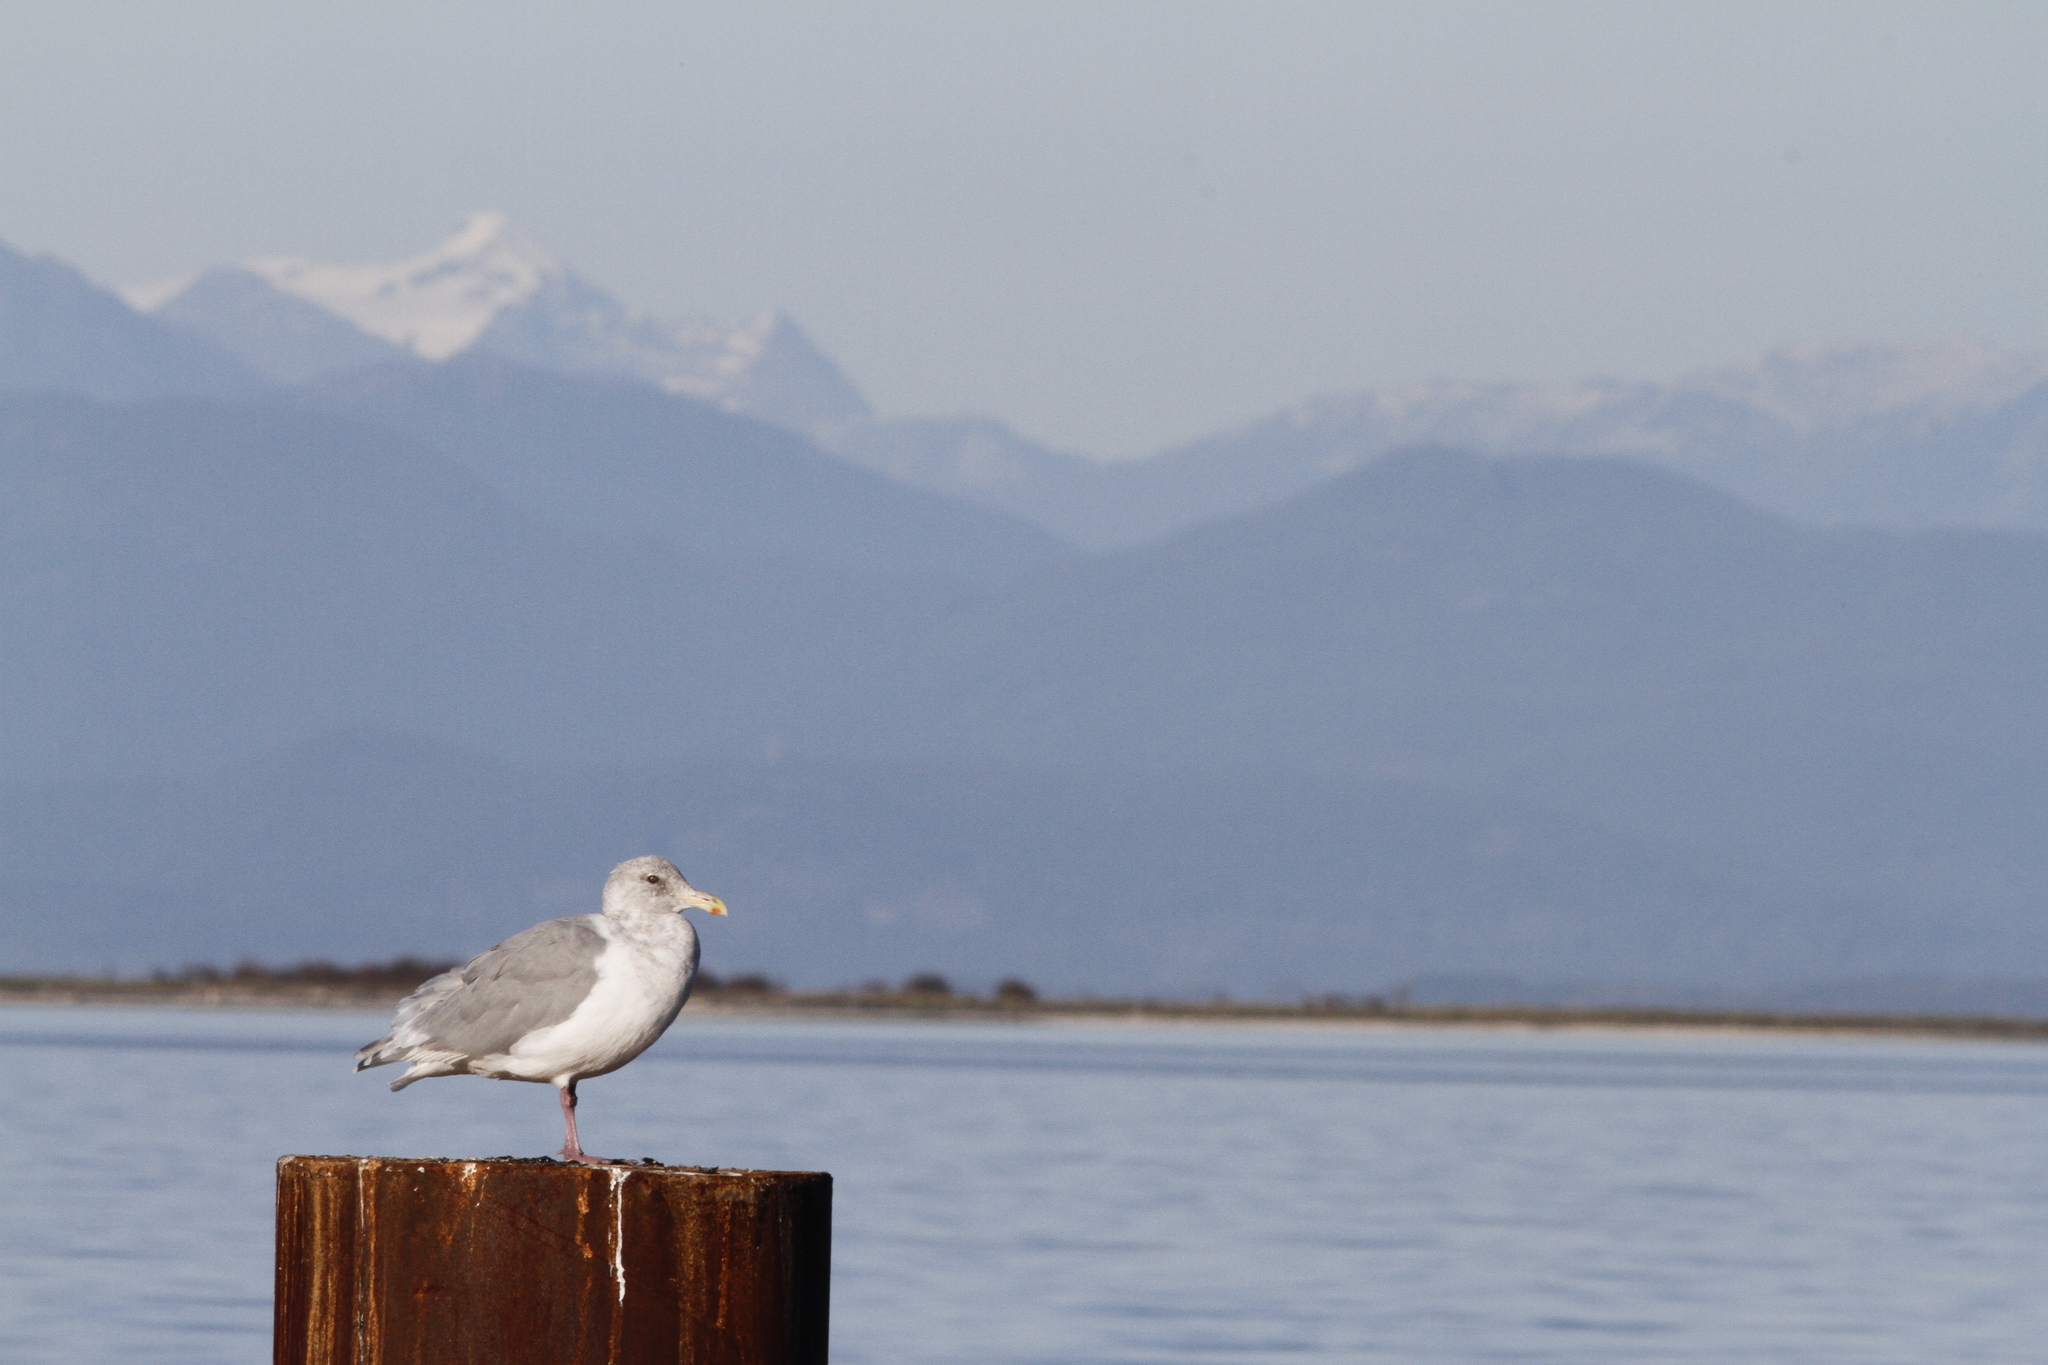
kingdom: Animalia
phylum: Chordata
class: Aves
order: Charadriiformes
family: Laridae
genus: Larus
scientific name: Larus
